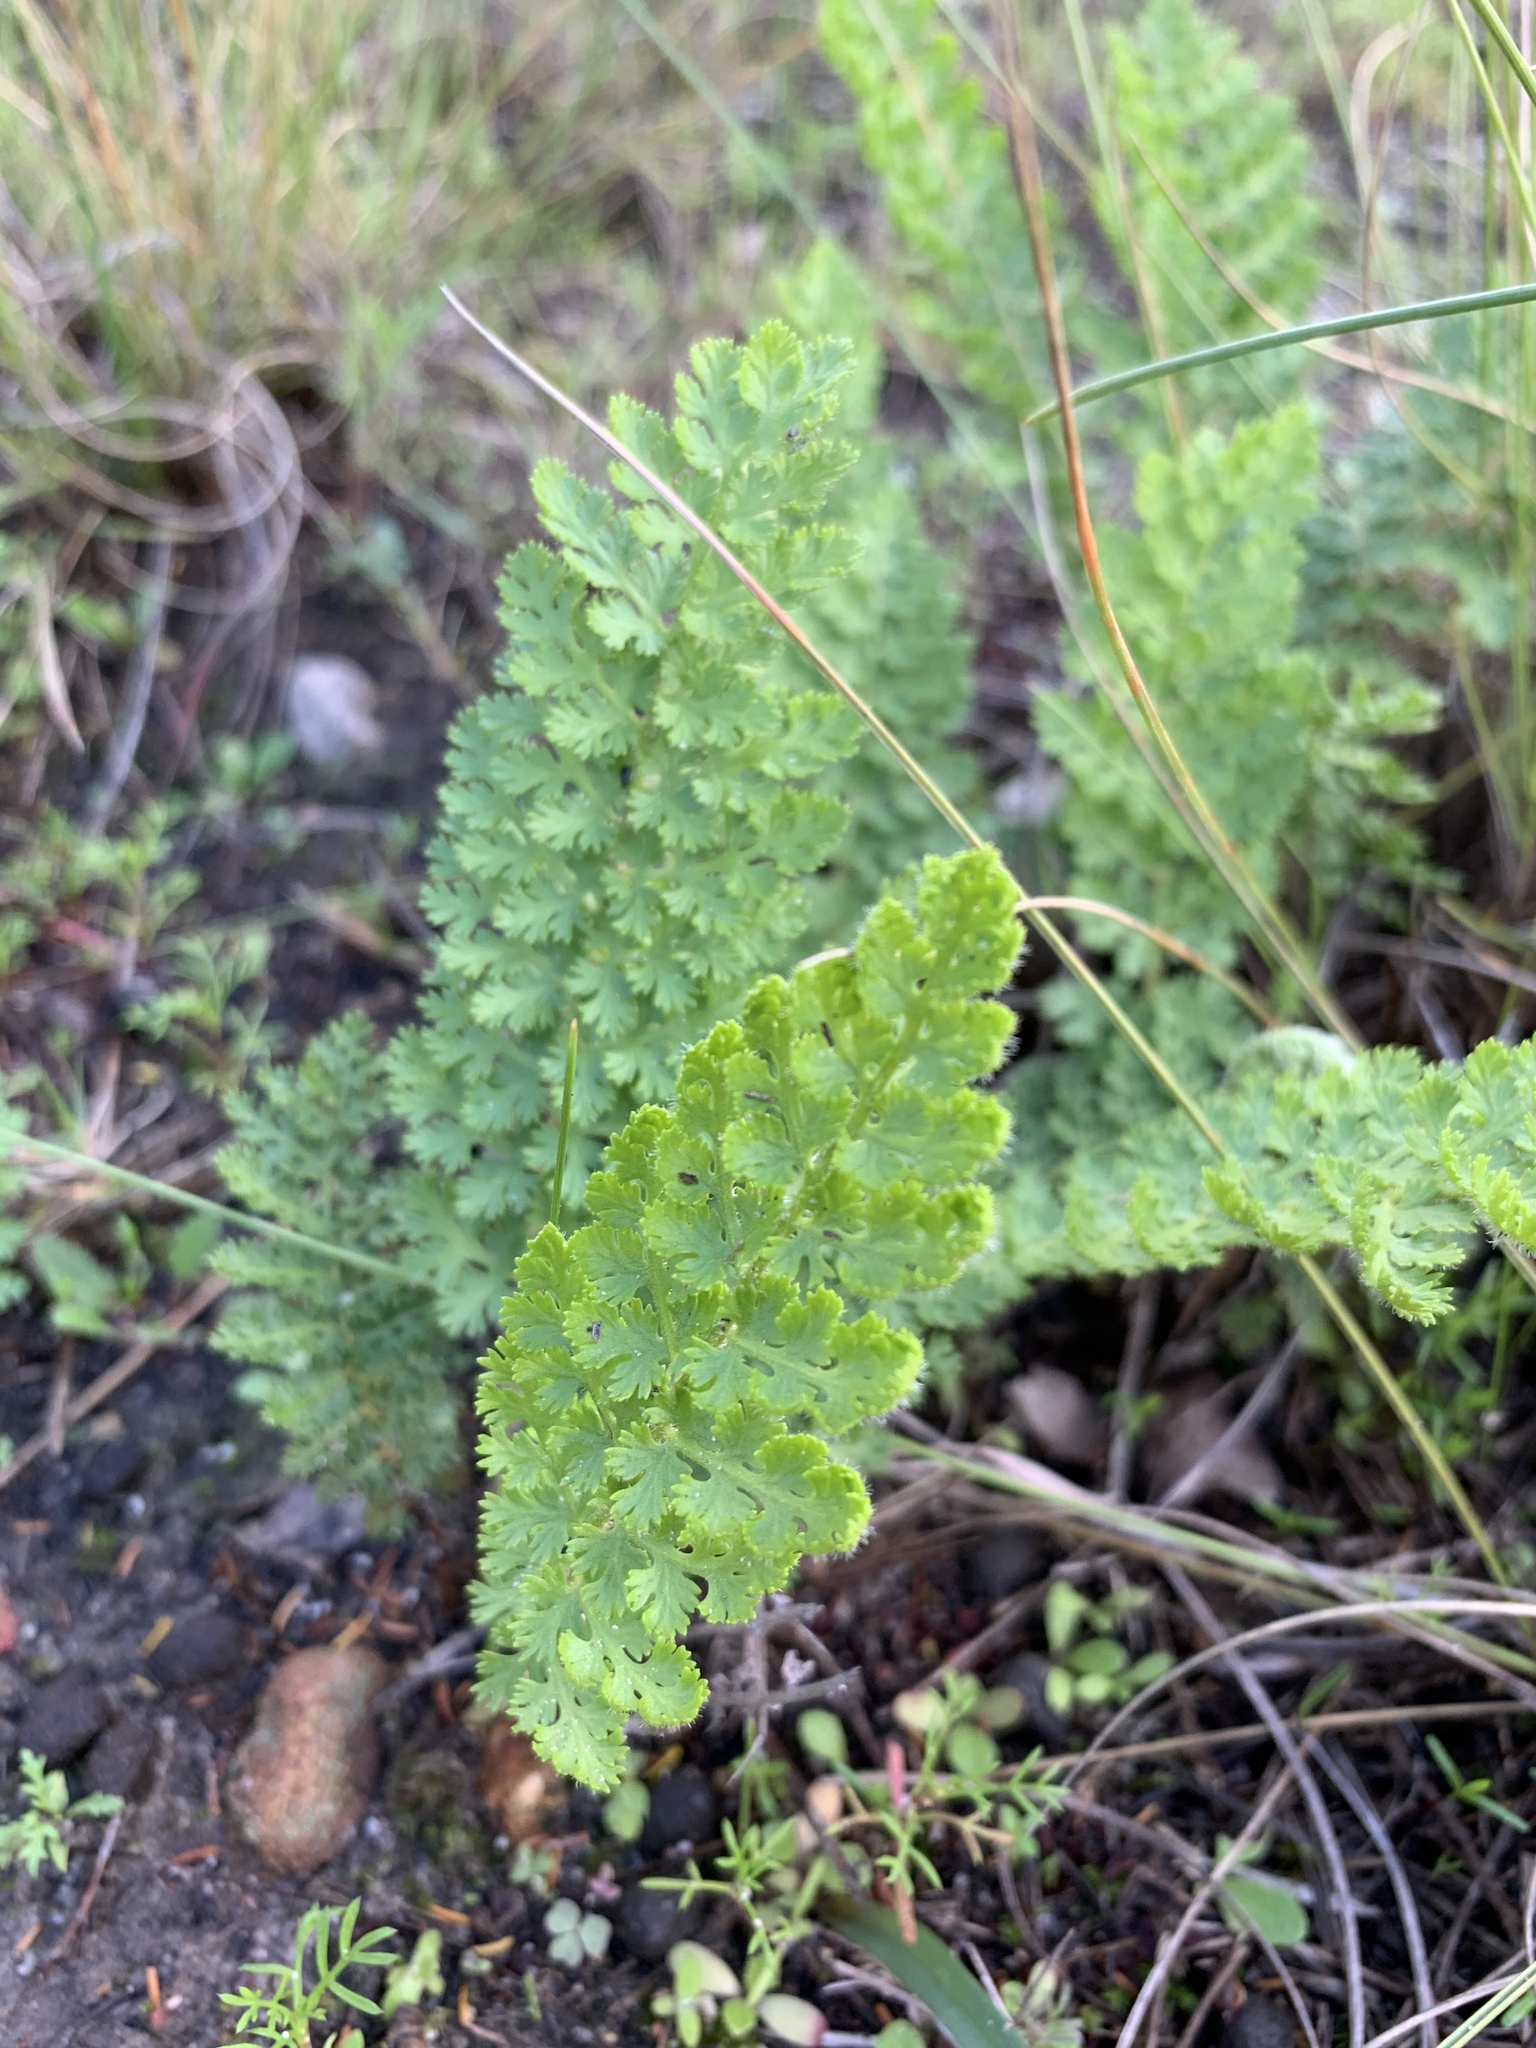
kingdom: Plantae
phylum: Tracheophyta
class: Polypodiopsida
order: Schizaeales
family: Anemiaceae
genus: Anemia
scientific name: Anemia caffrorum
